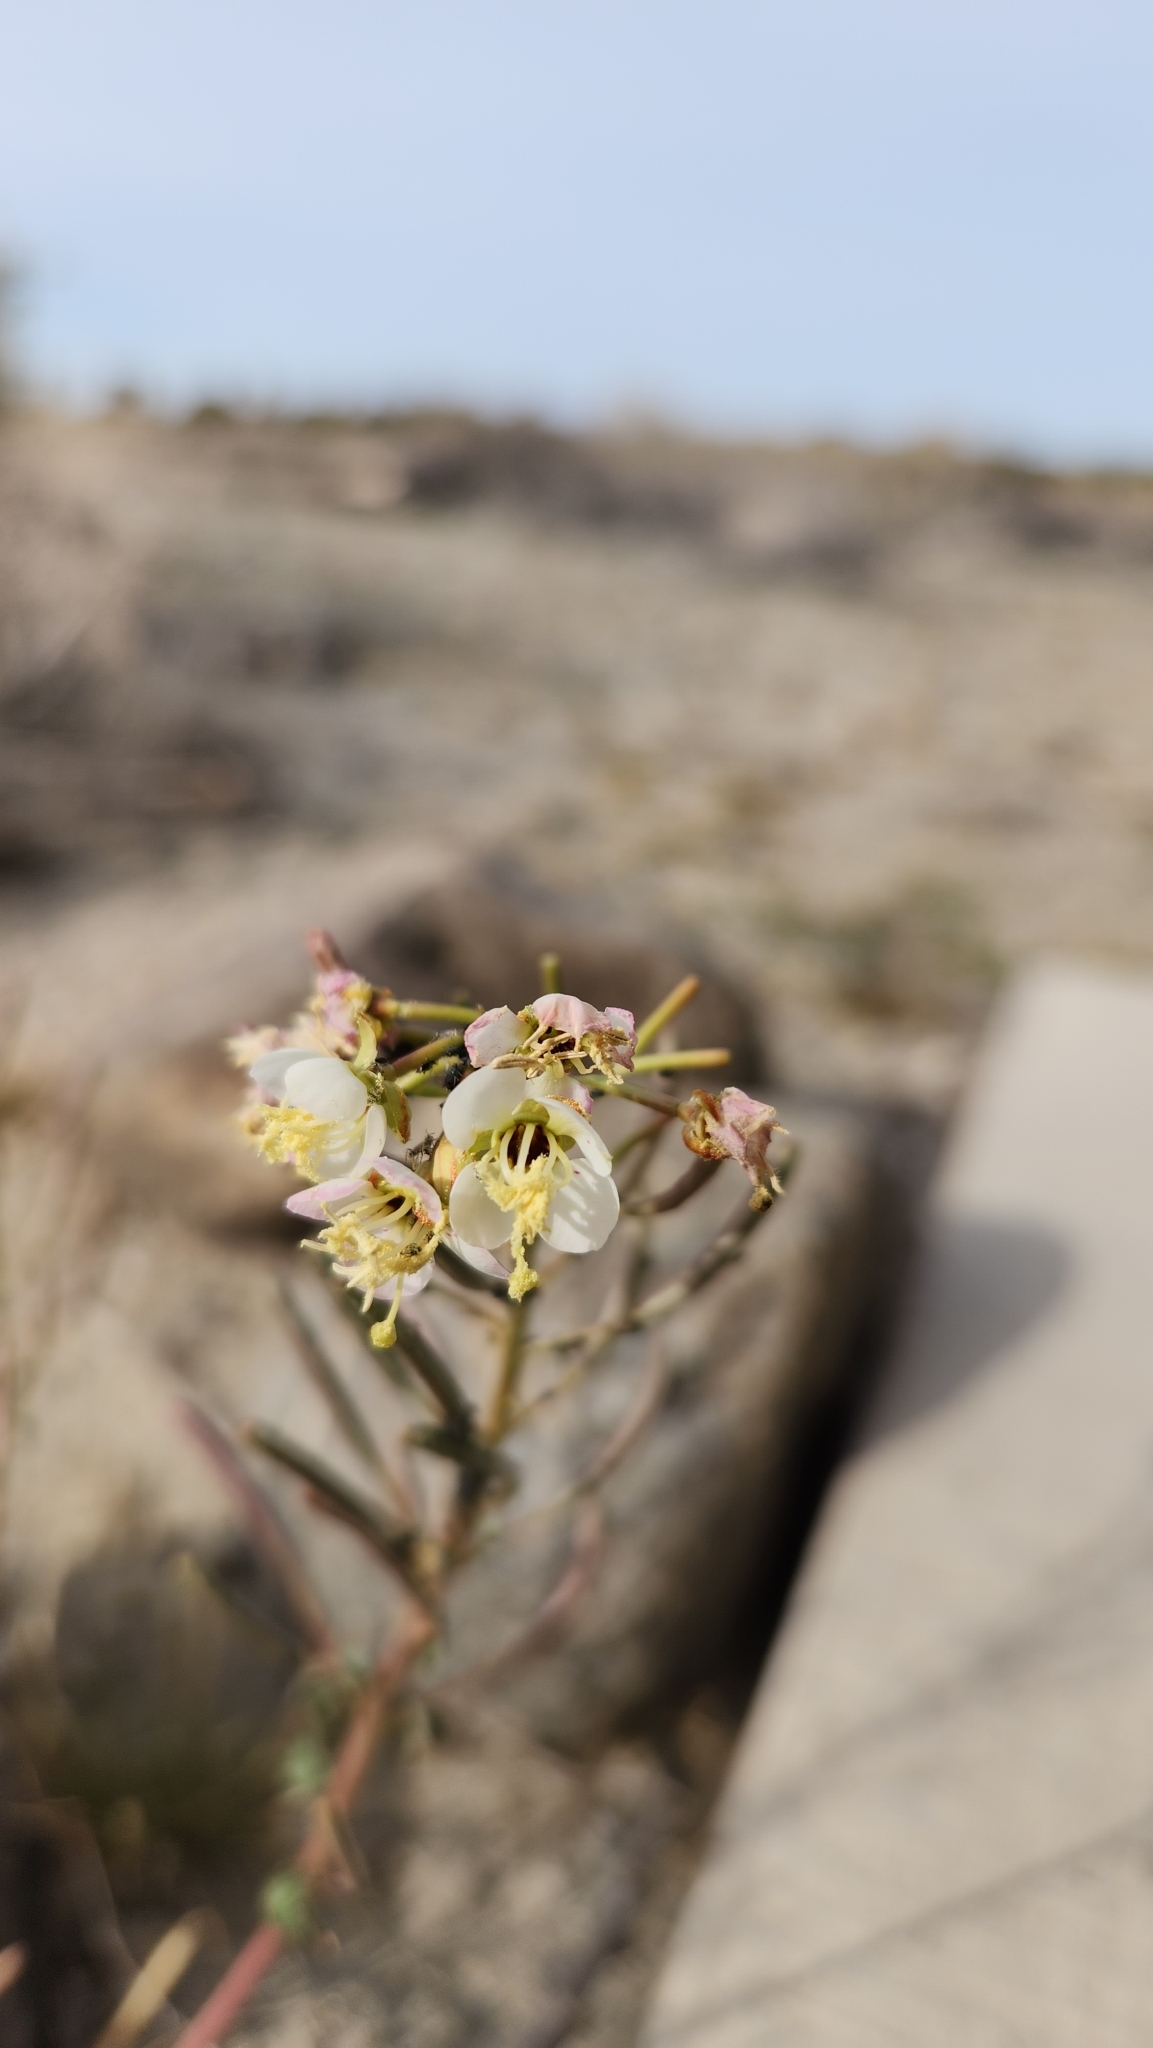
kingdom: Plantae
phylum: Tracheophyta
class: Magnoliopsida
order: Myrtales
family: Onagraceae
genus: Chylismia
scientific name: Chylismia claviformis
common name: Browneyes
